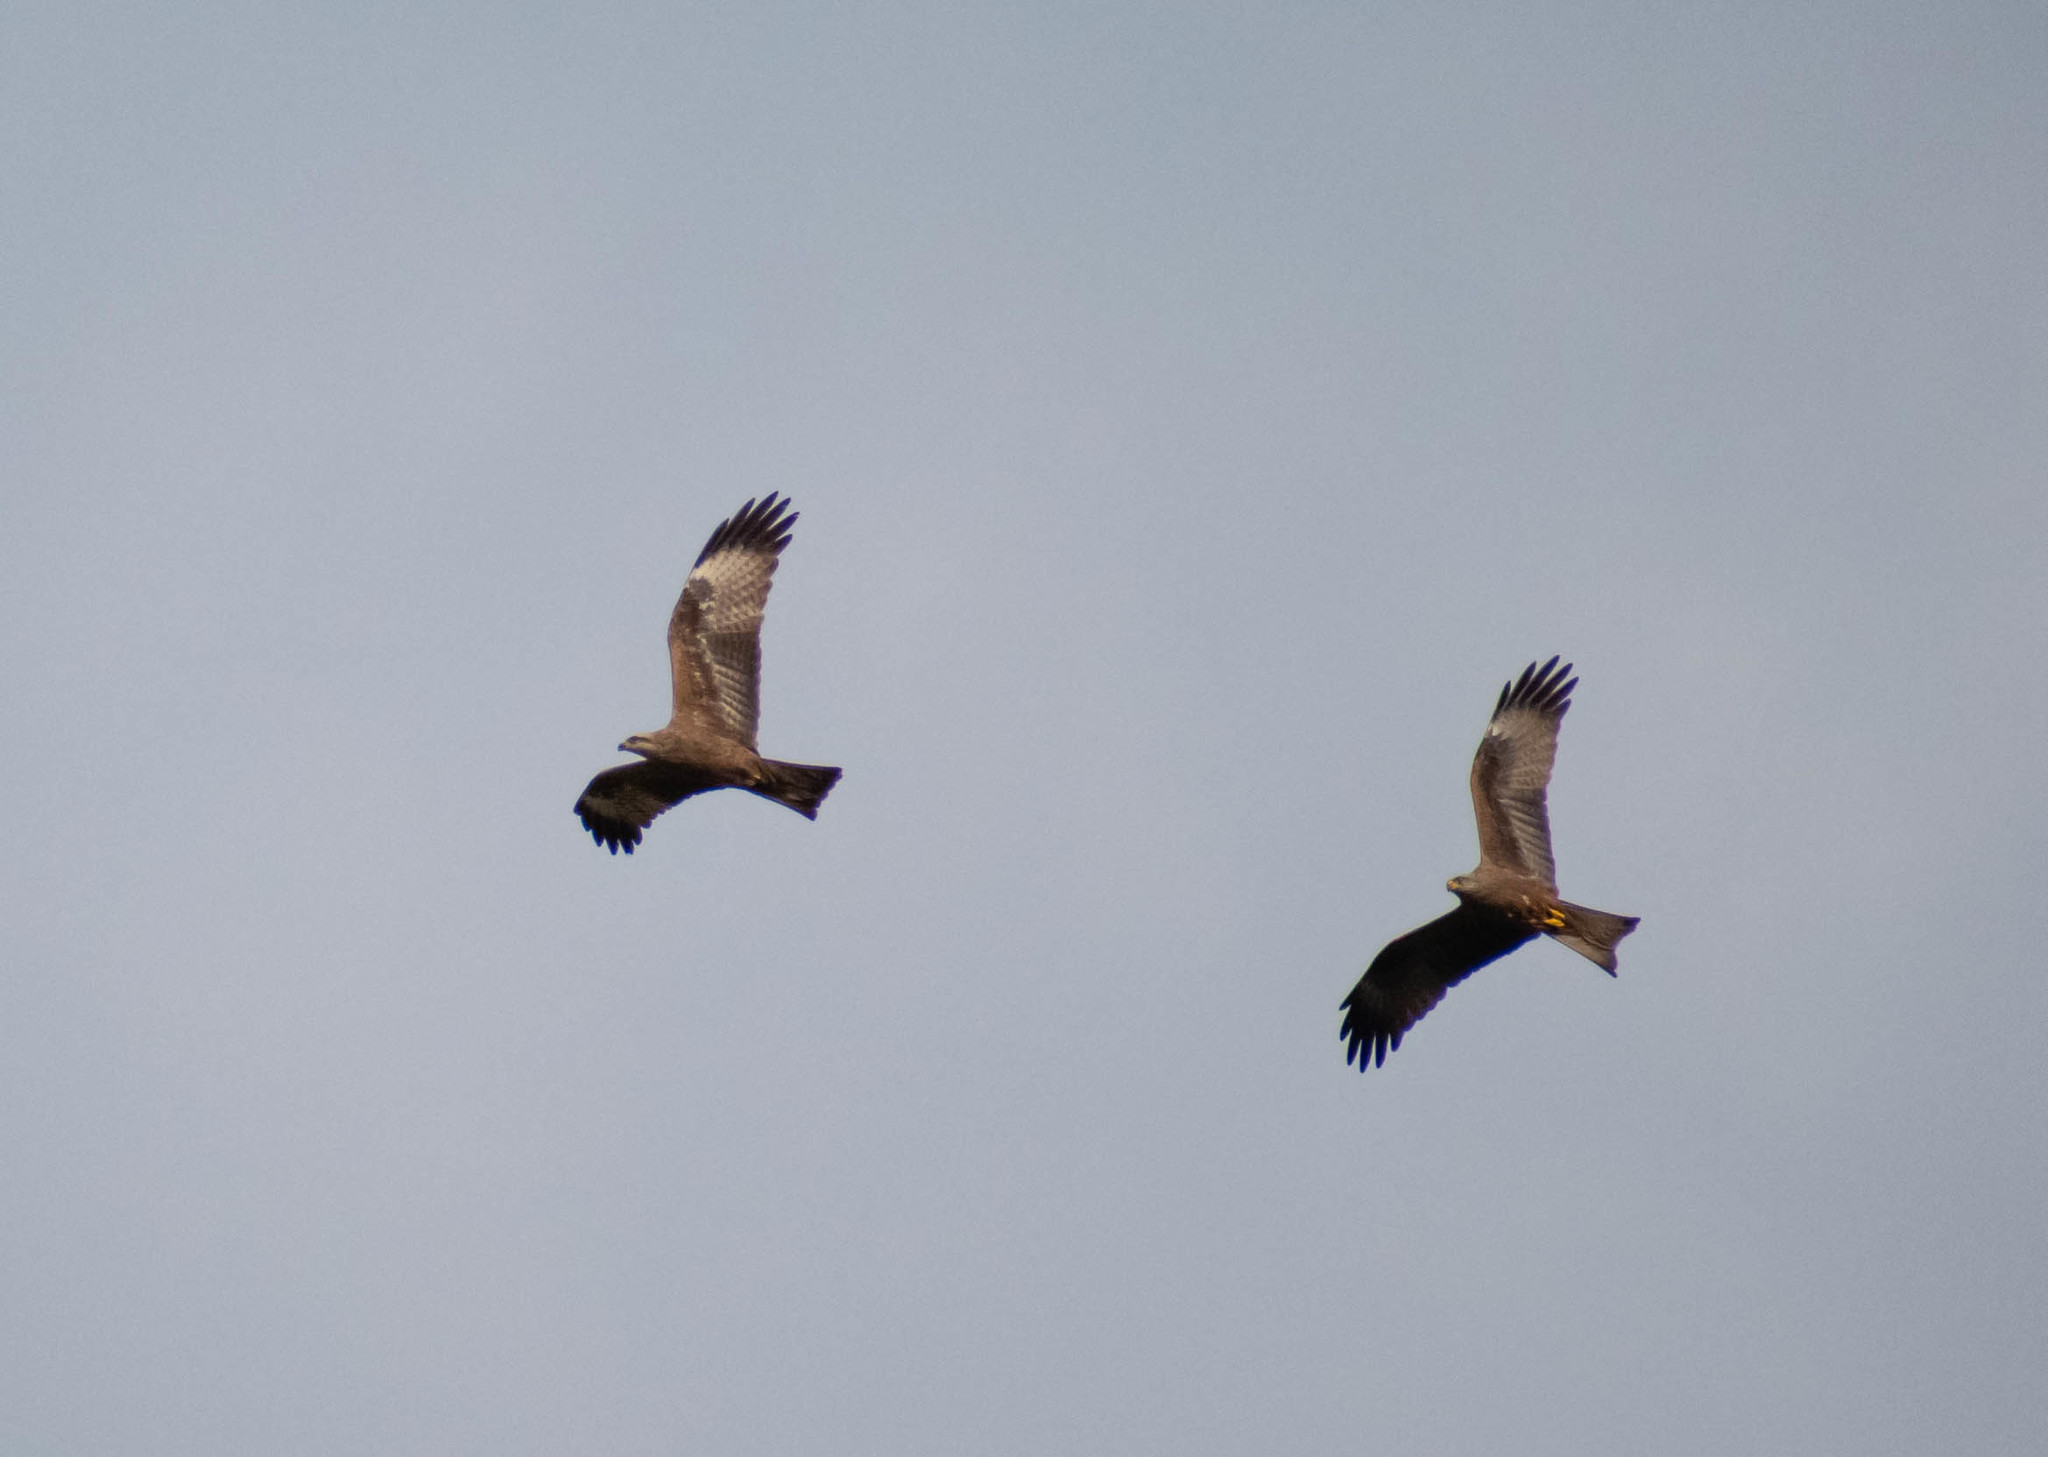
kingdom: Animalia
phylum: Chordata
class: Aves
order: Accipitriformes
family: Accipitridae
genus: Milvus
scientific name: Milvus migrans
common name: Black kite
